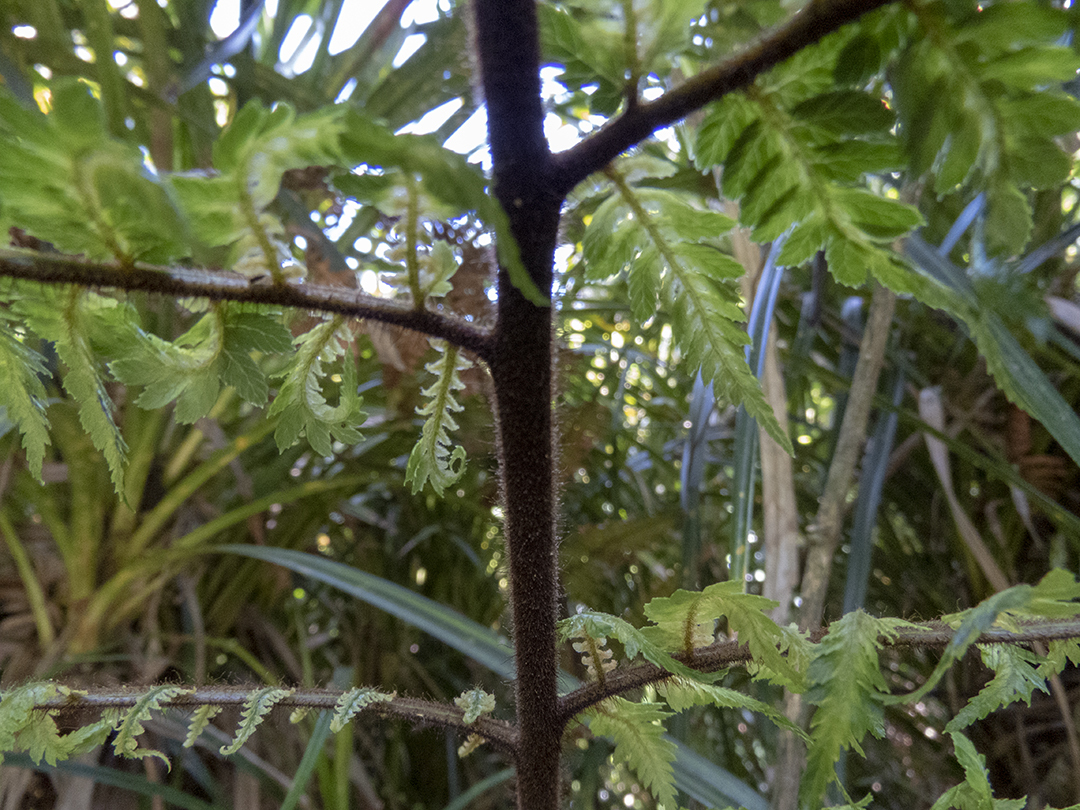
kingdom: Plantae
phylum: Tracheophyta
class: Polypodiopsida
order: Cyatheales
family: Dicksoniaceae
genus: Dicksonia
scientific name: Dicksonia squarrosa
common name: Hard treefern
